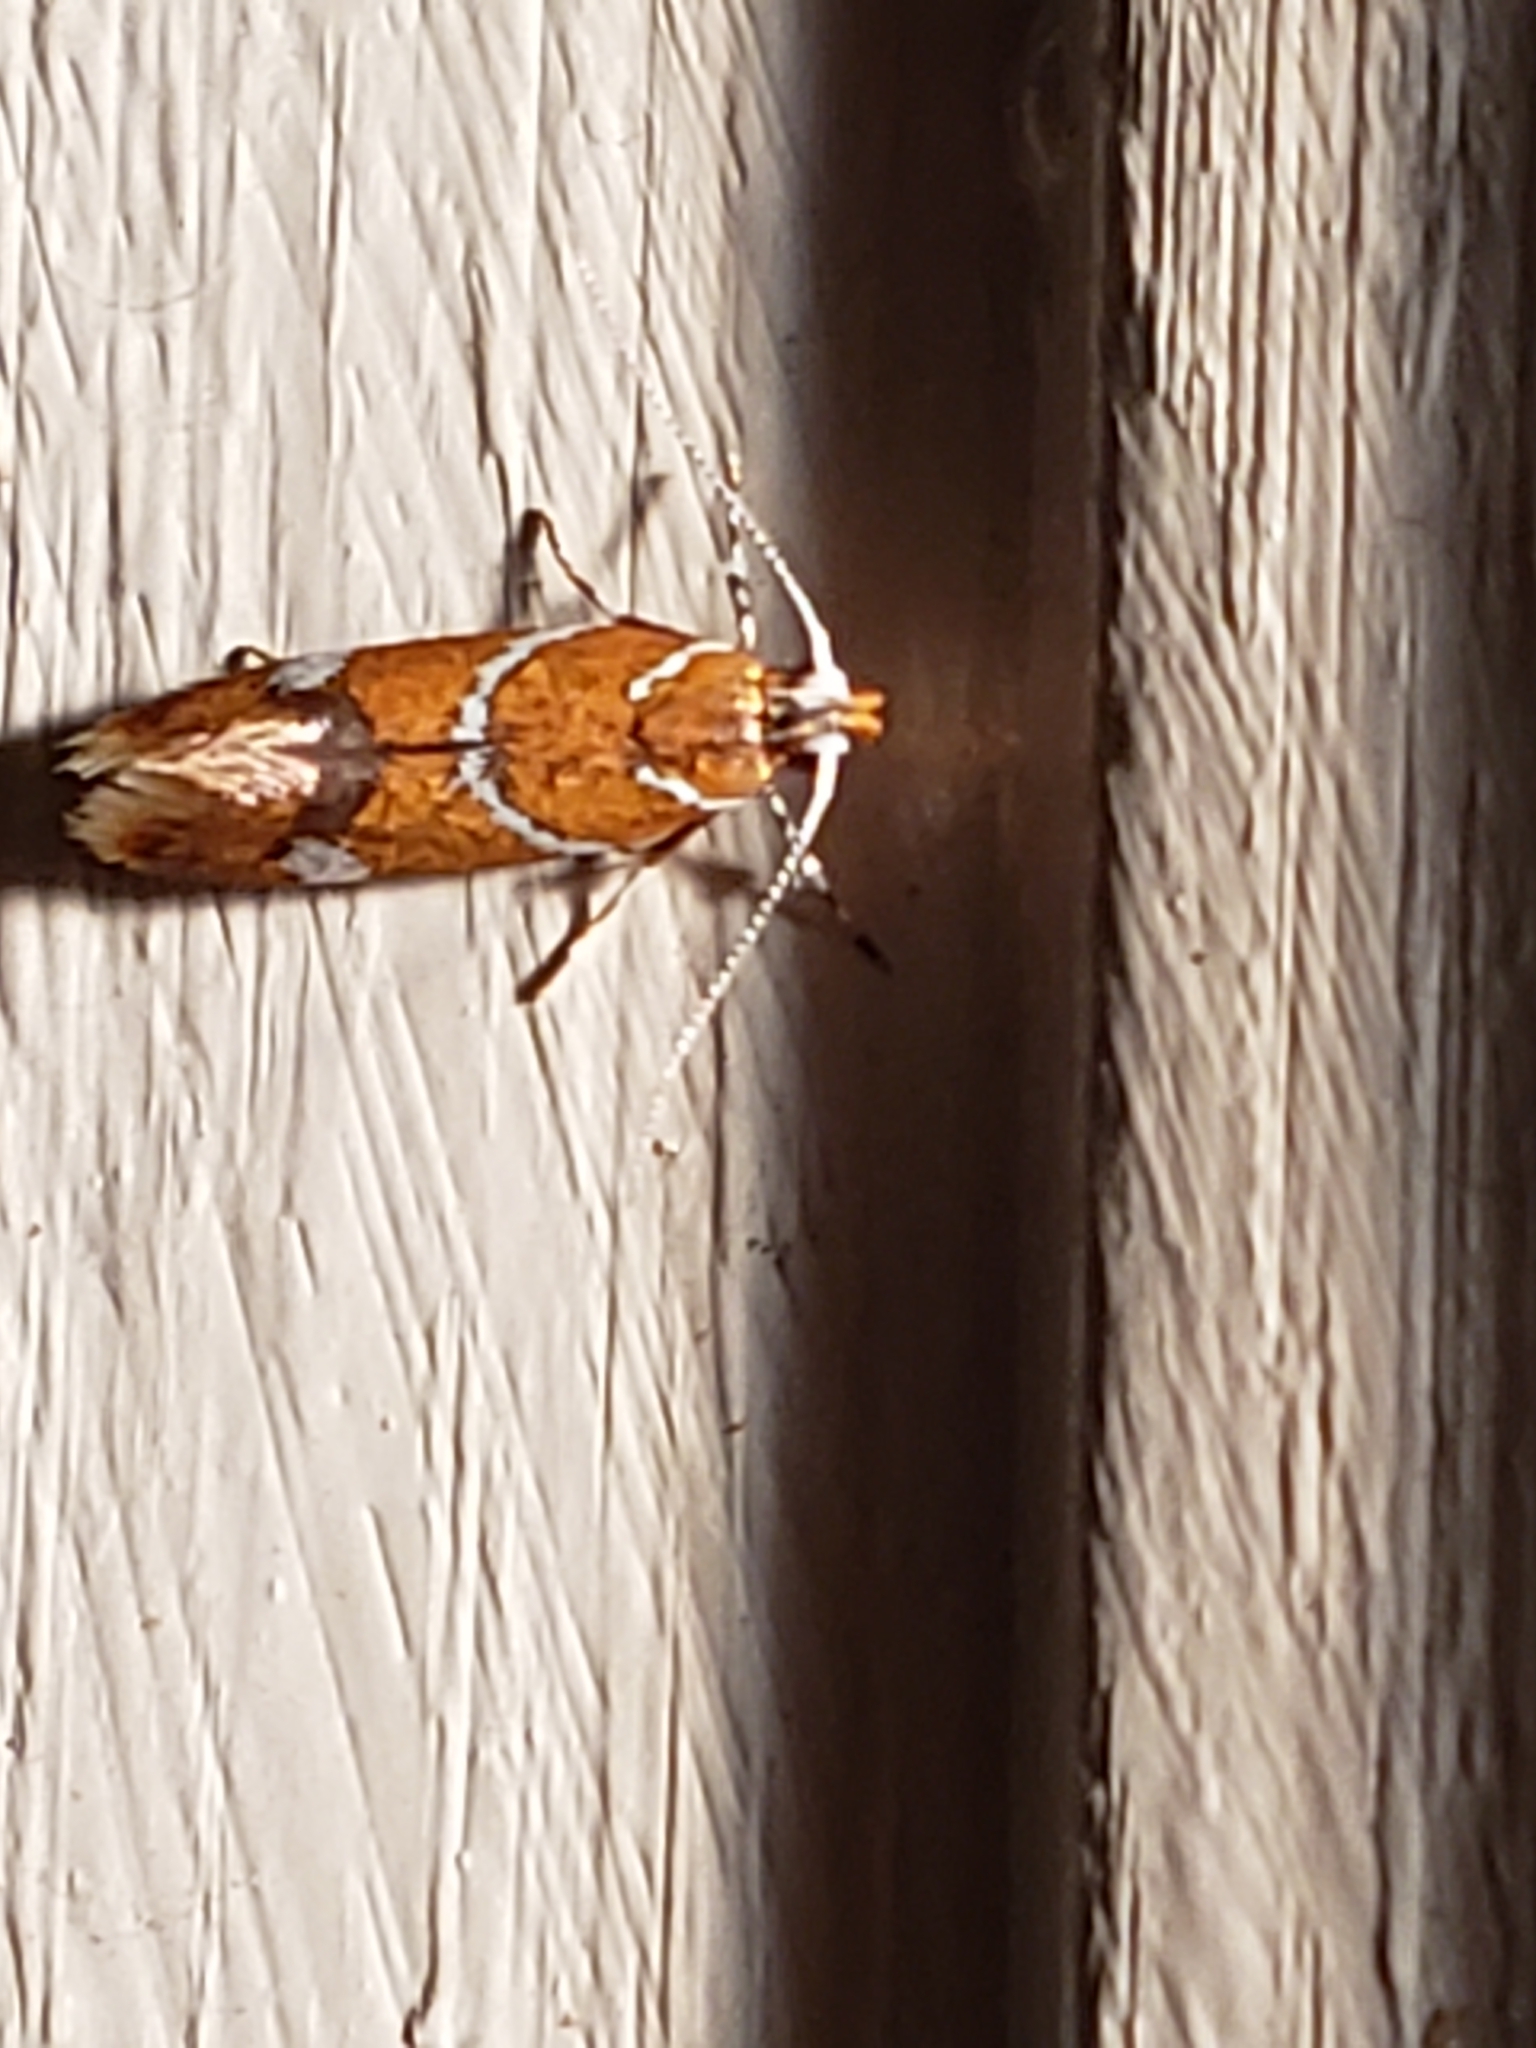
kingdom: Animalia
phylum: Arthropoda
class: Insecta
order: Lepidoptera
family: Oecophoridae
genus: Promalactis
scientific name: Promalactis suzukiella
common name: Moth
